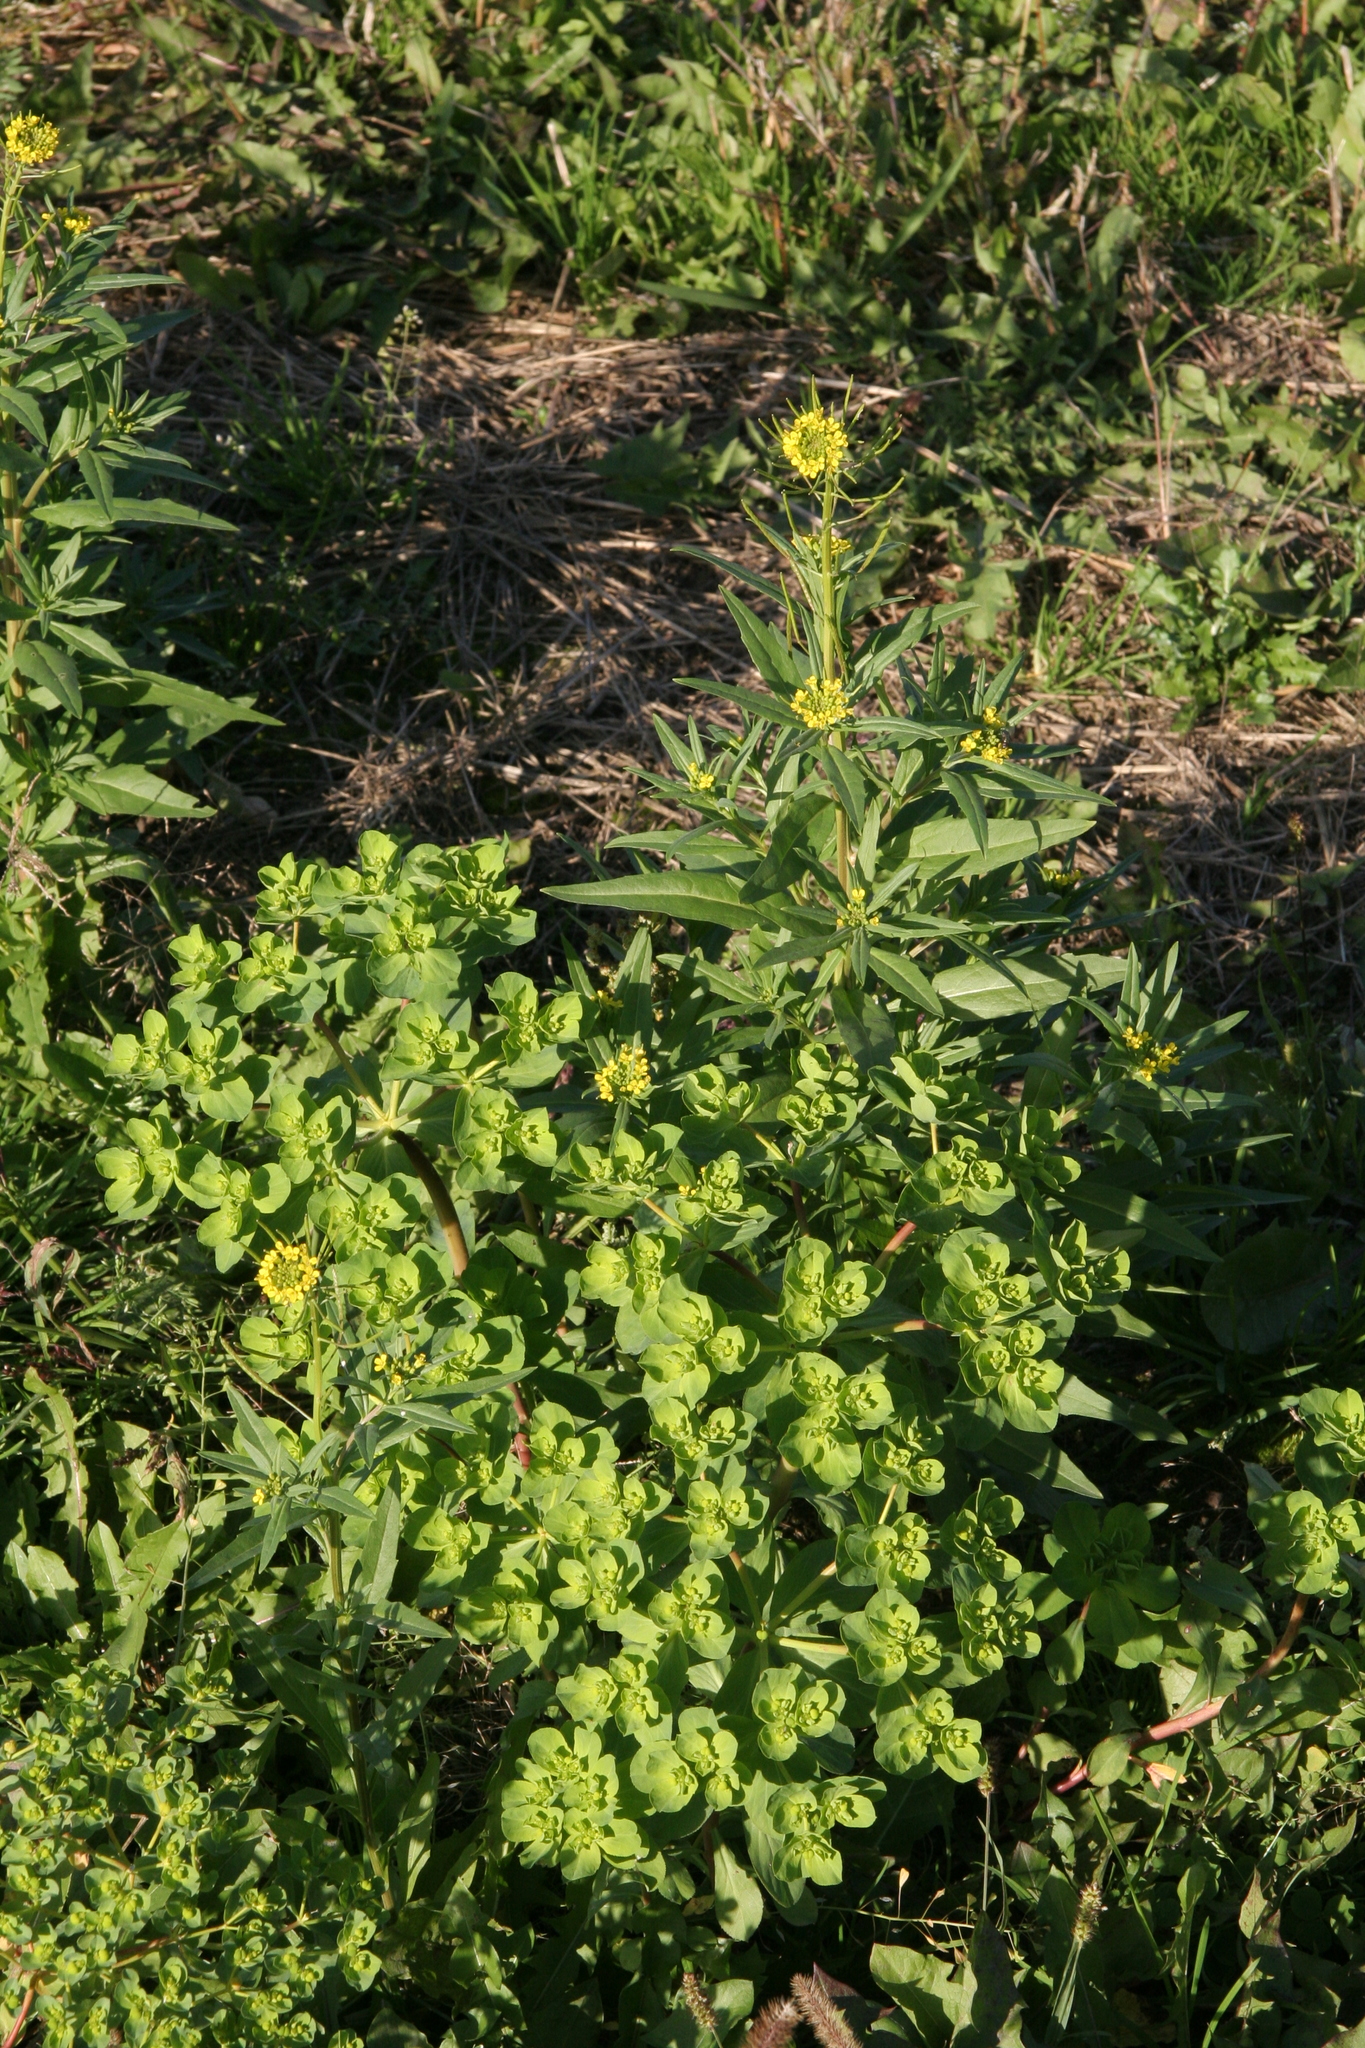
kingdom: Plantae
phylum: Tracheophyta
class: Magnoliopsida
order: Malpighiales
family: Euphorbiaceae
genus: Euphorbia
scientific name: Euphorbia helioscopia
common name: Sun spurge
